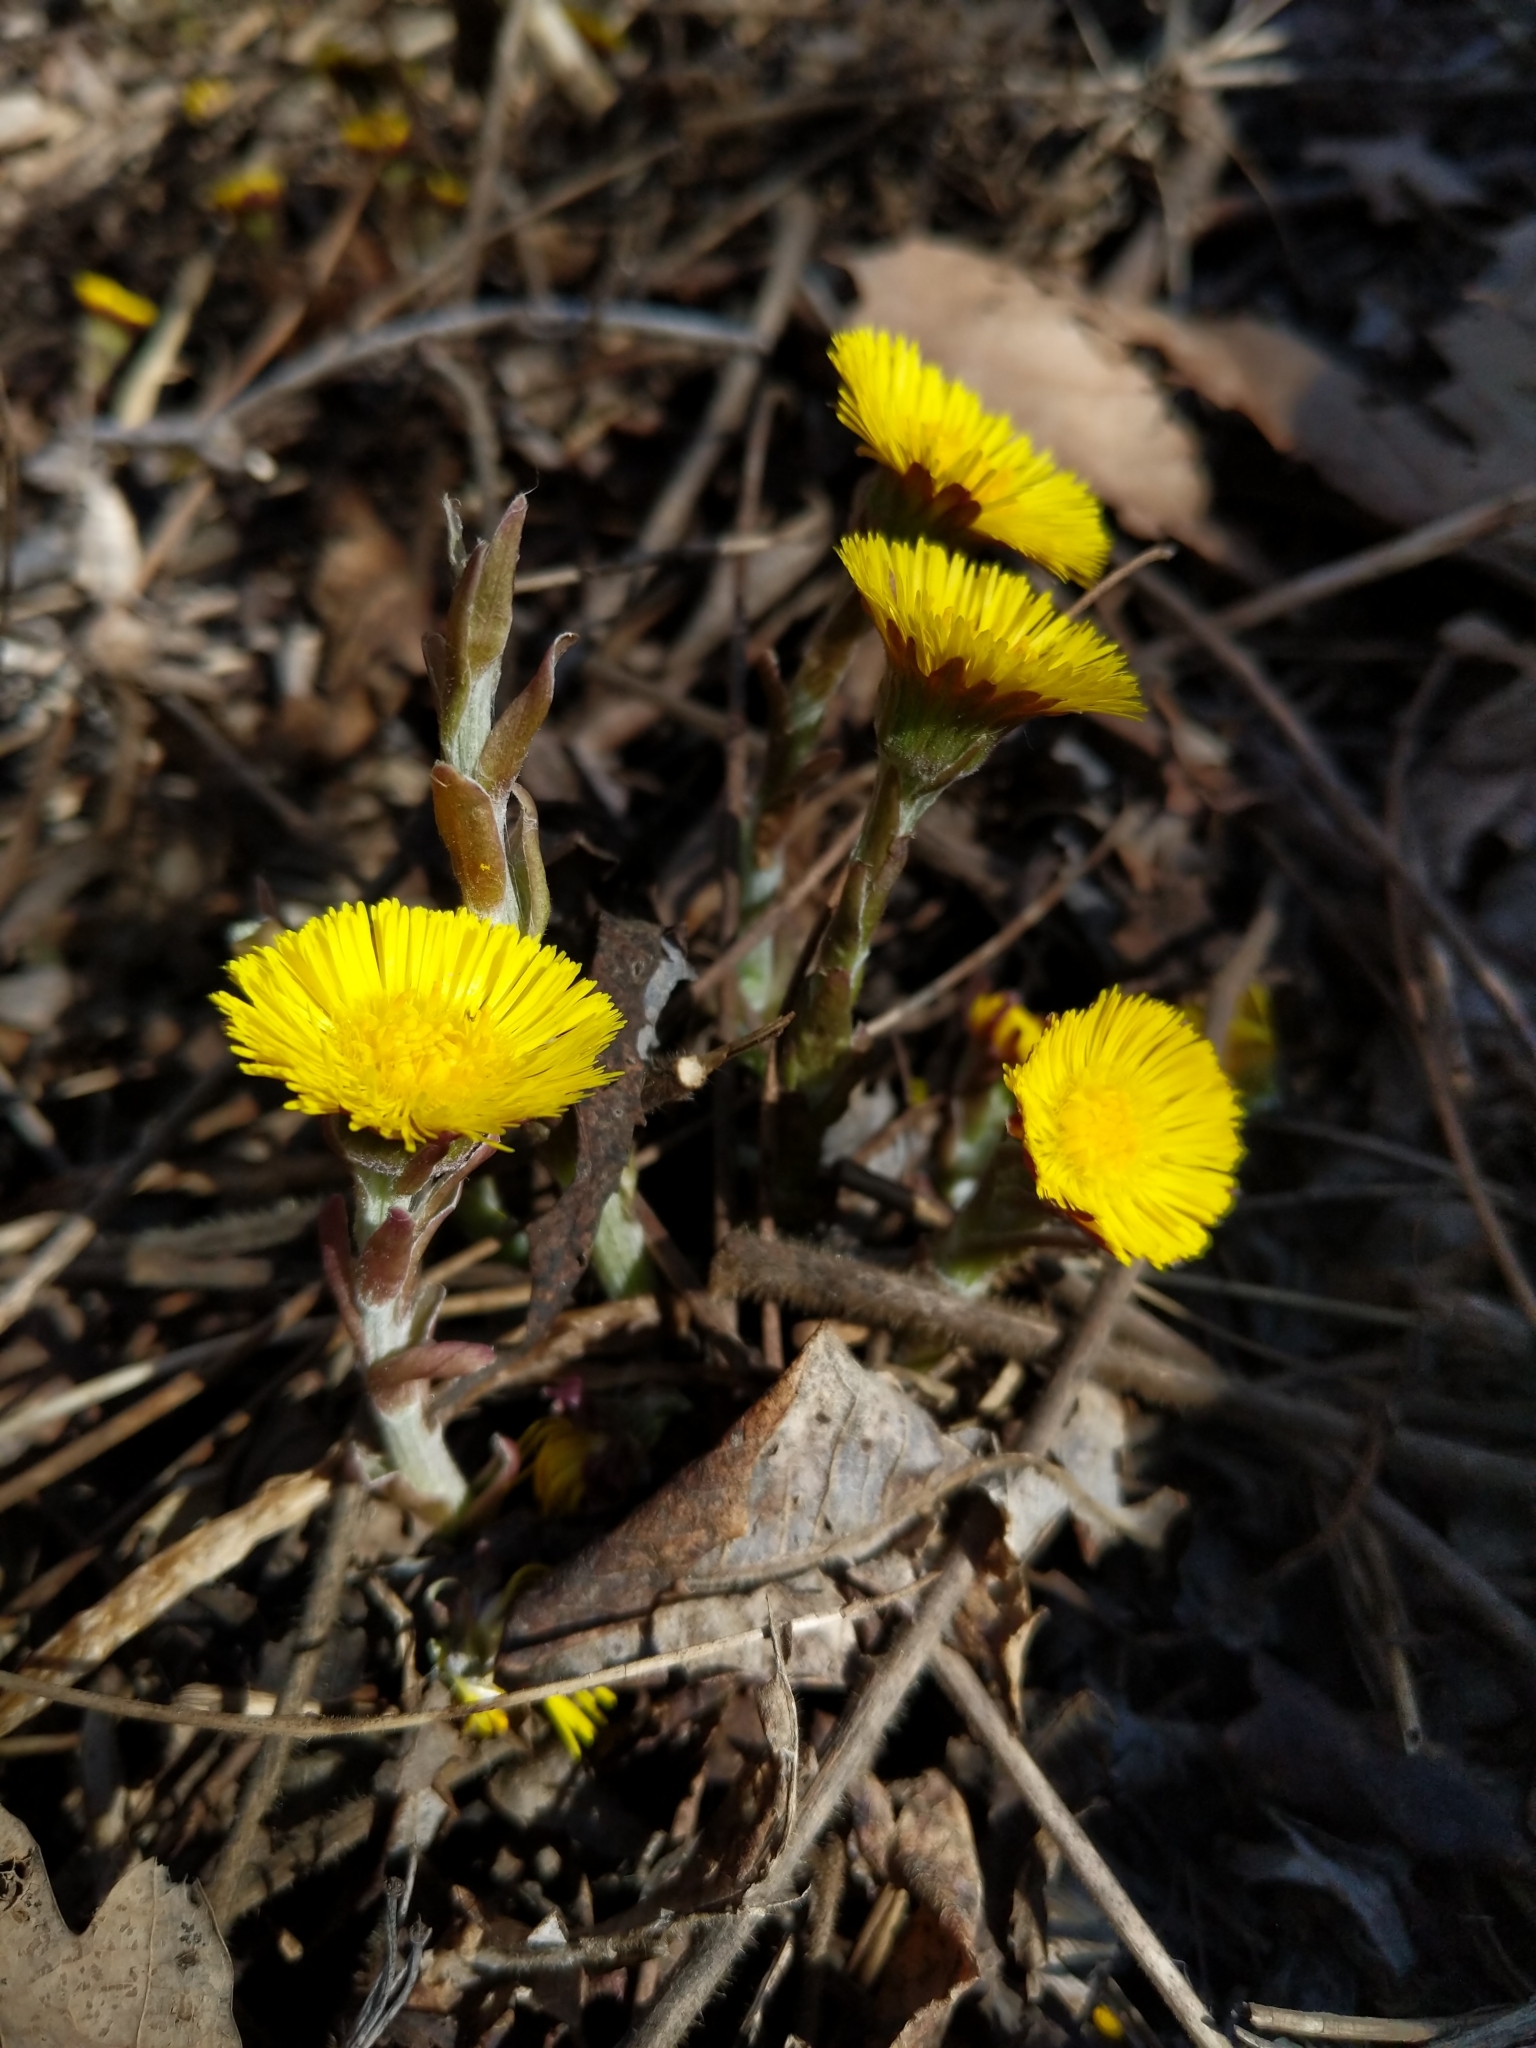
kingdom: Plantae
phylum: Tracheophyta
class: Magnoliopsida
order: Asterales
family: Asteraceae
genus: Tussilago
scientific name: Tussilago farfara
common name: Coltsfoot
